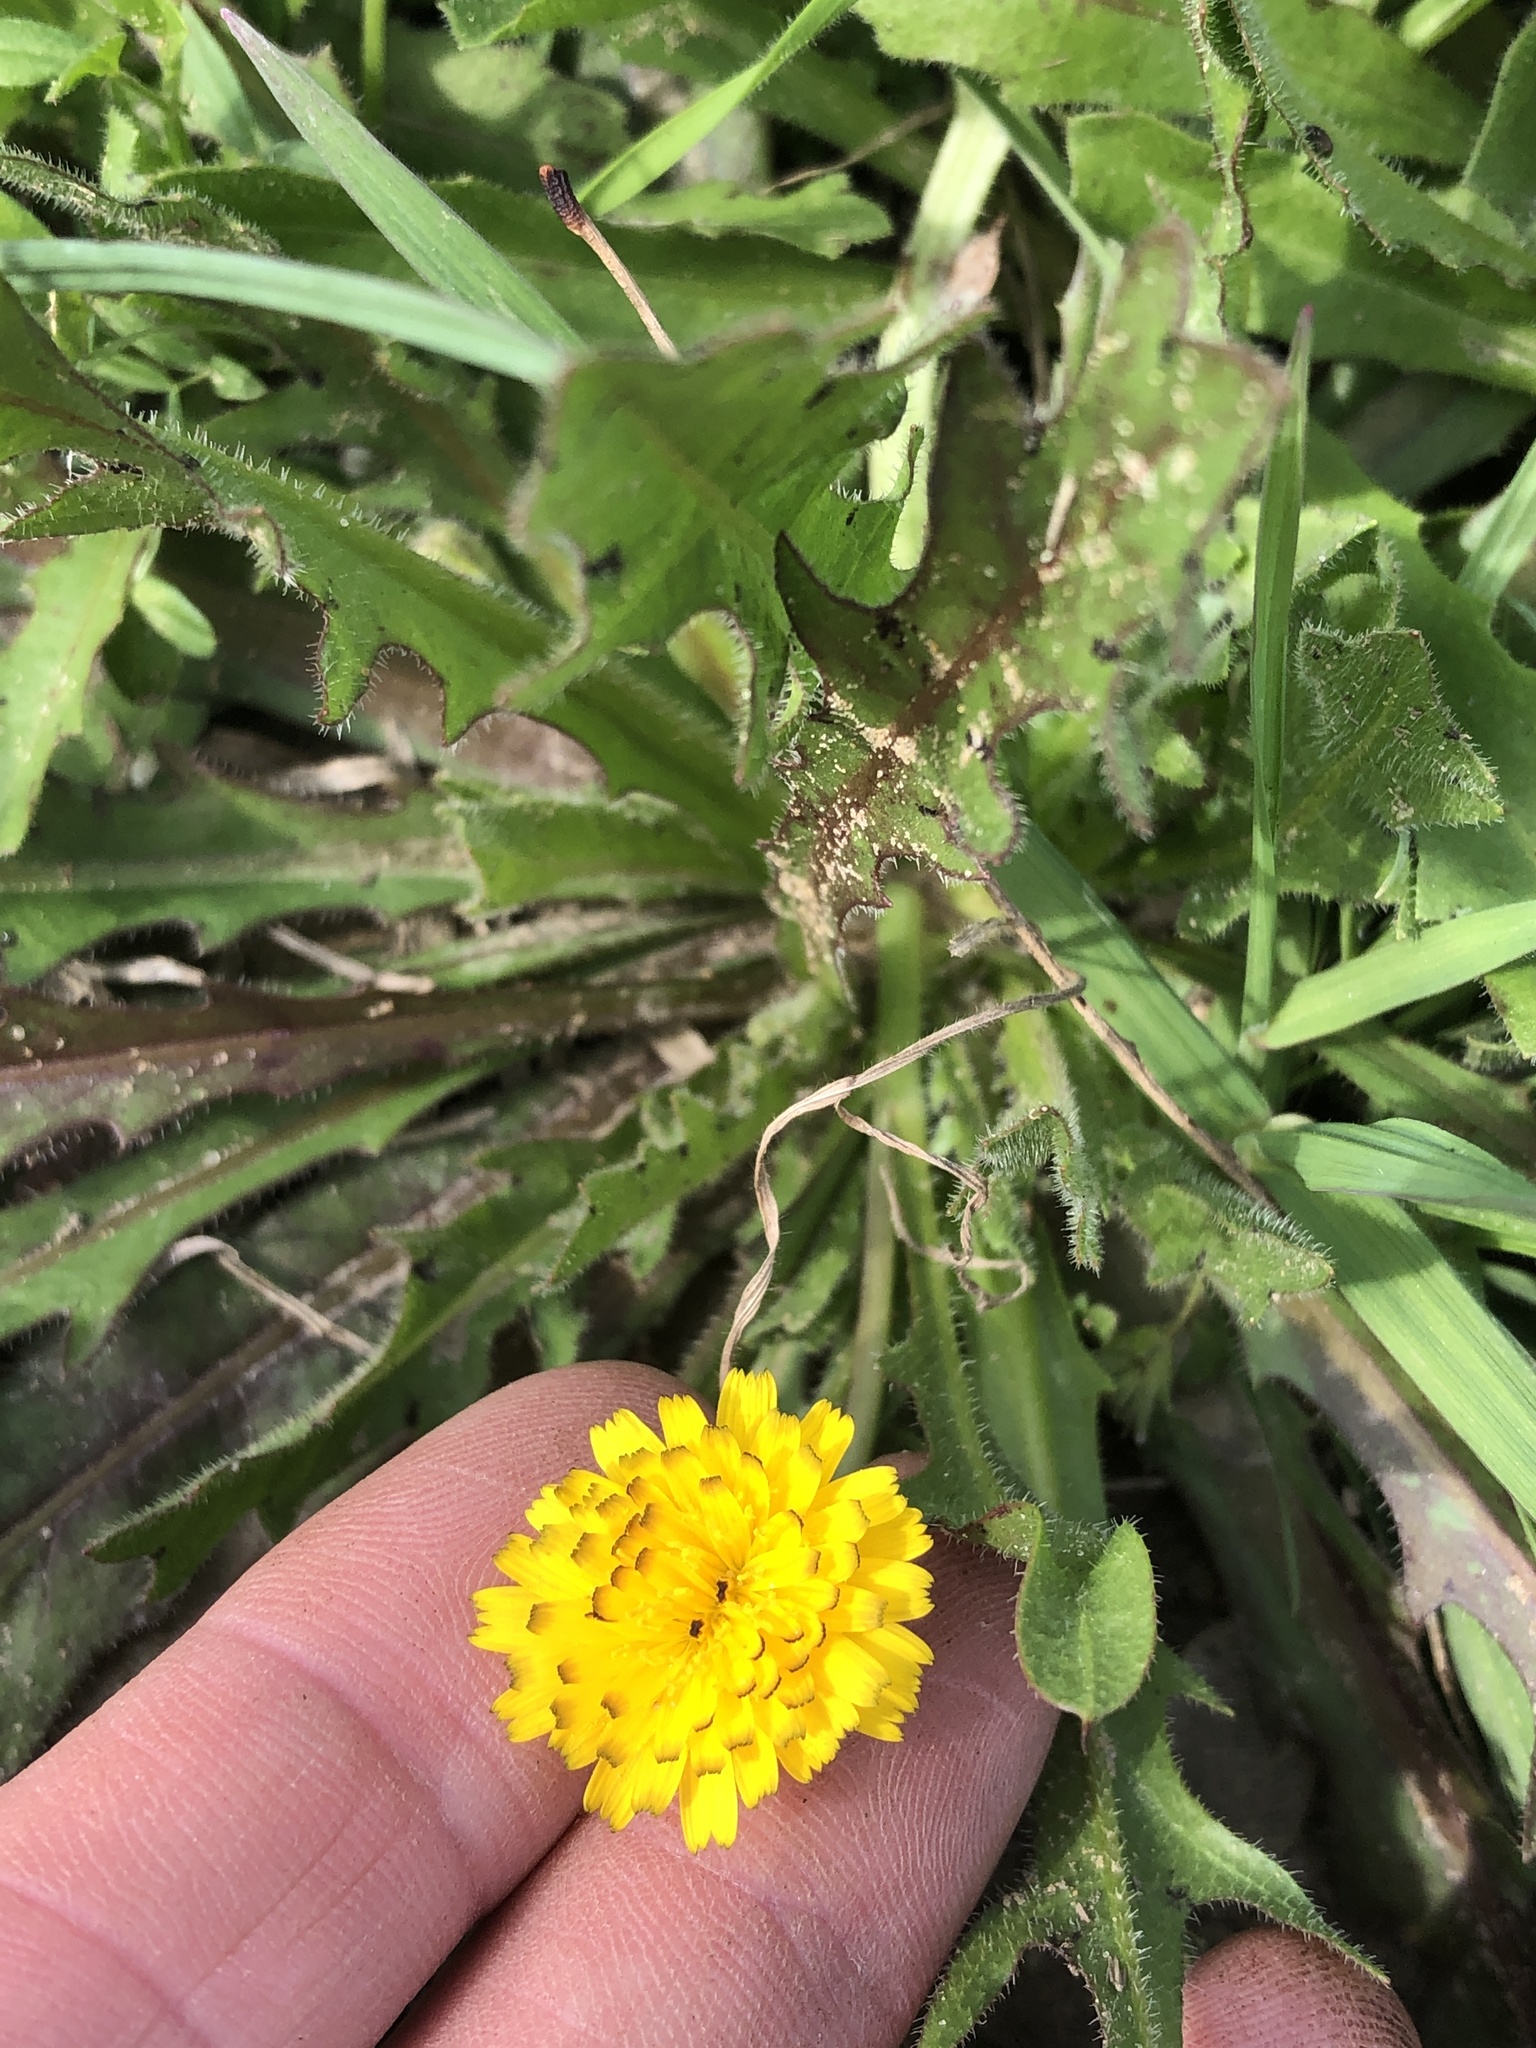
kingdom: Plantae
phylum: Tracheophyta
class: Magnoliopsida
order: Asterales
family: Asteraceae
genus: Hedypnois
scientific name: Hedypnois rhagadioloides
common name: Cretan weed
